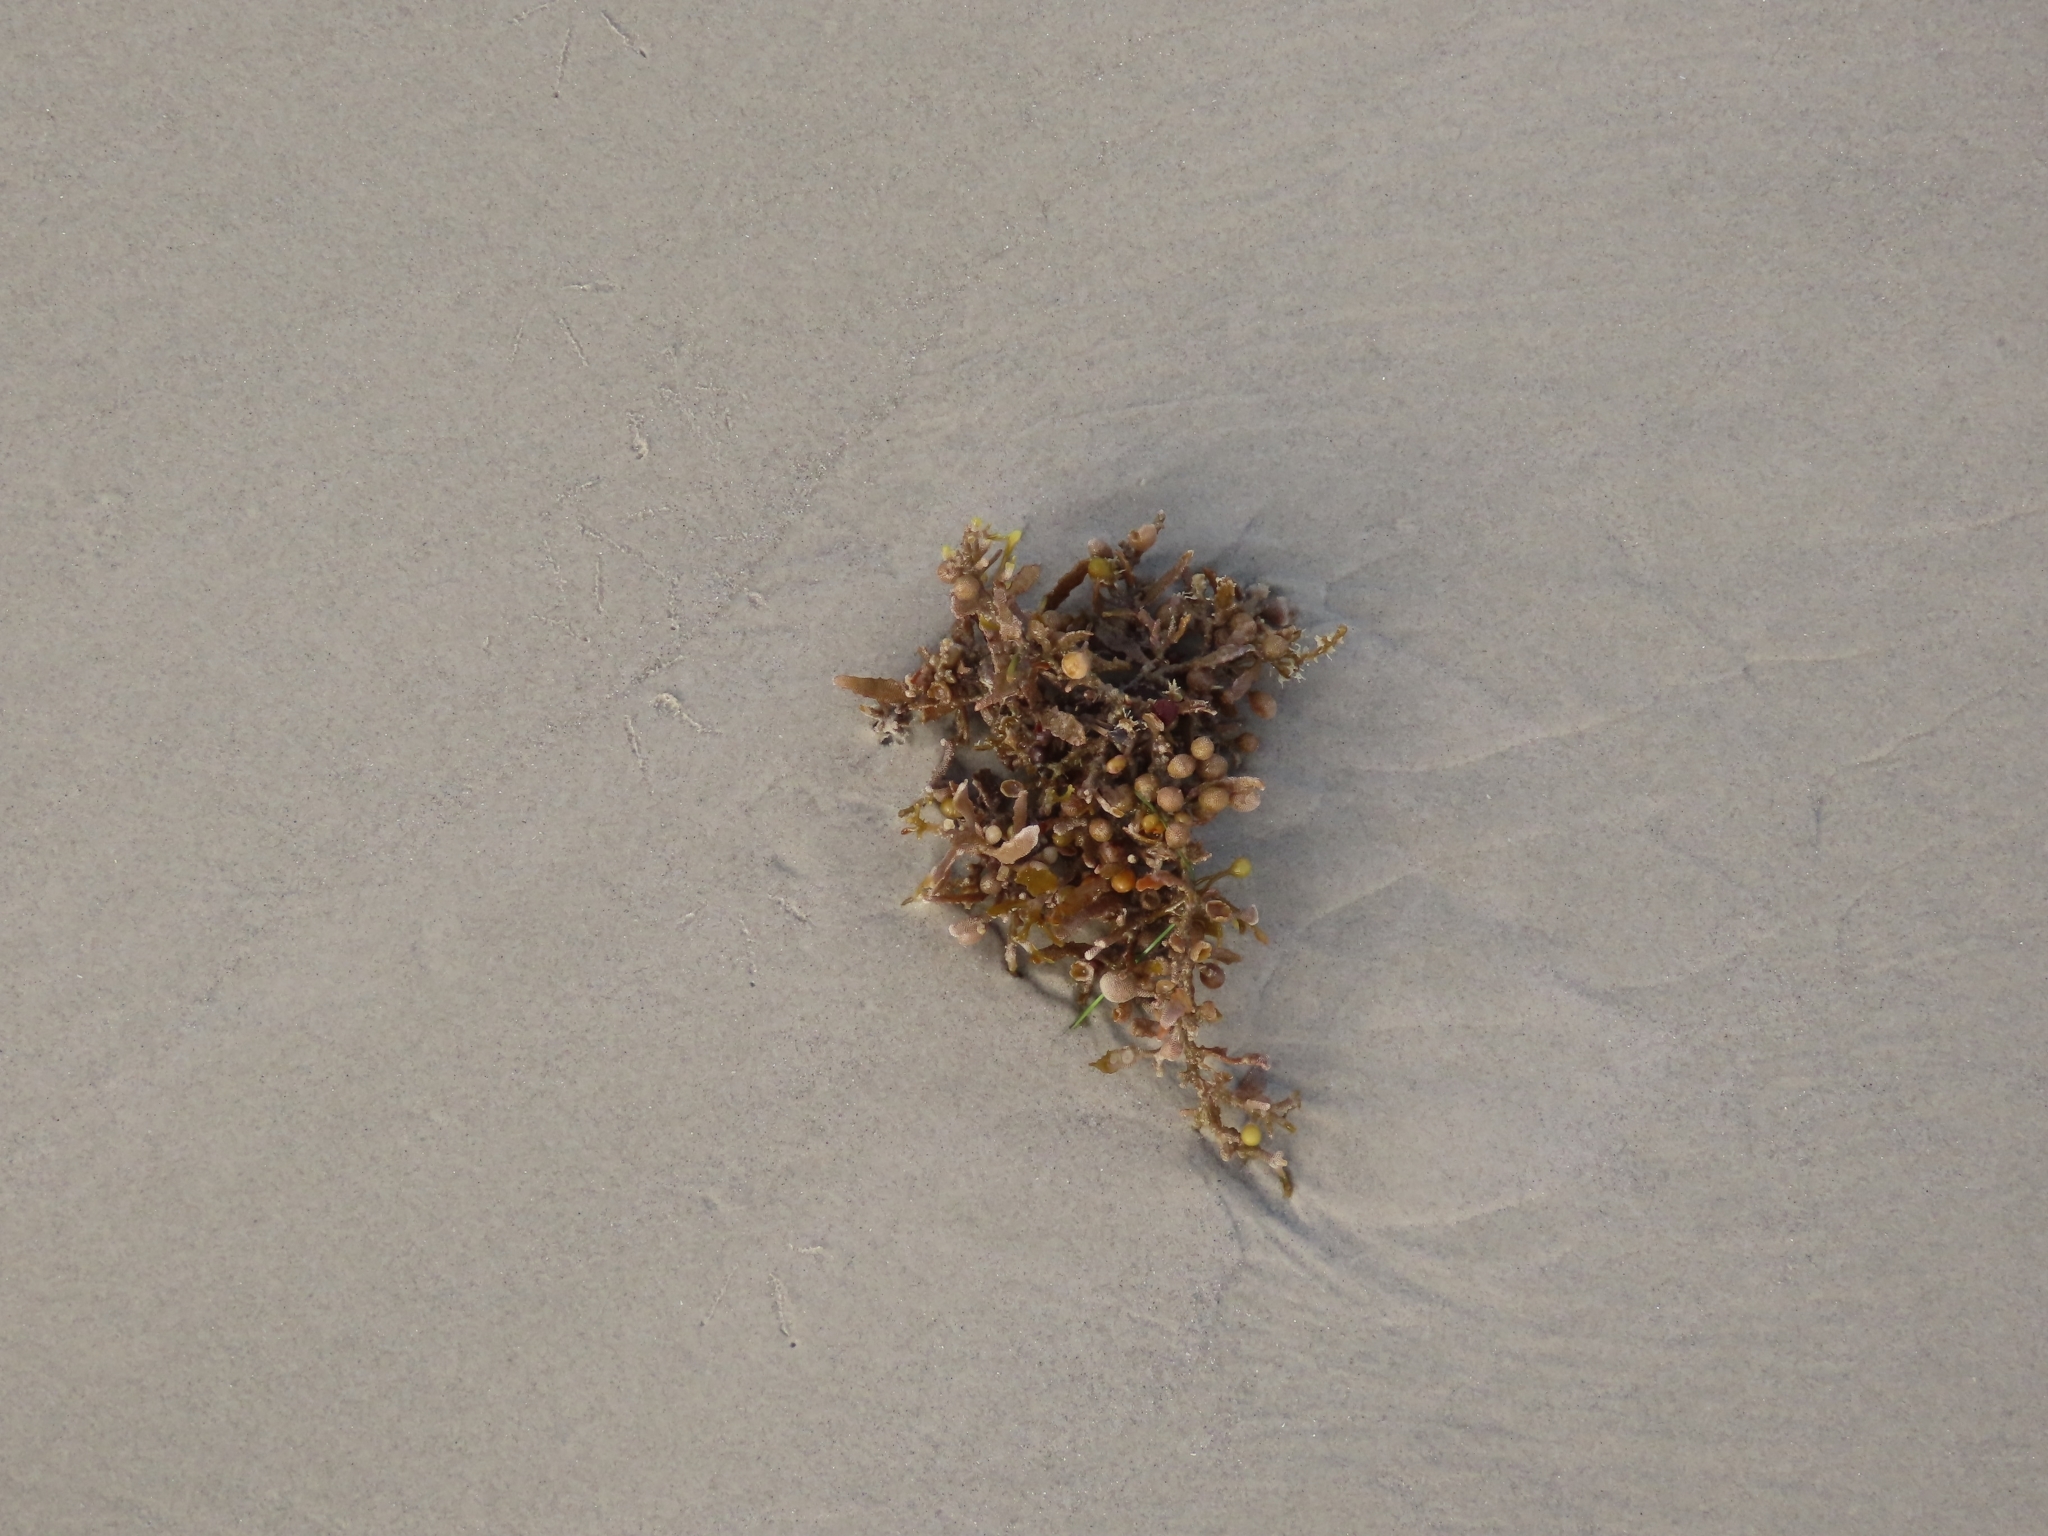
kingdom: Chromista
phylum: Ochrophyta
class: Phaeophyceae
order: Fucales
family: Sargassaceae
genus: Sargassum
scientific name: Sargassum fluitans
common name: Sargassum seaweed
